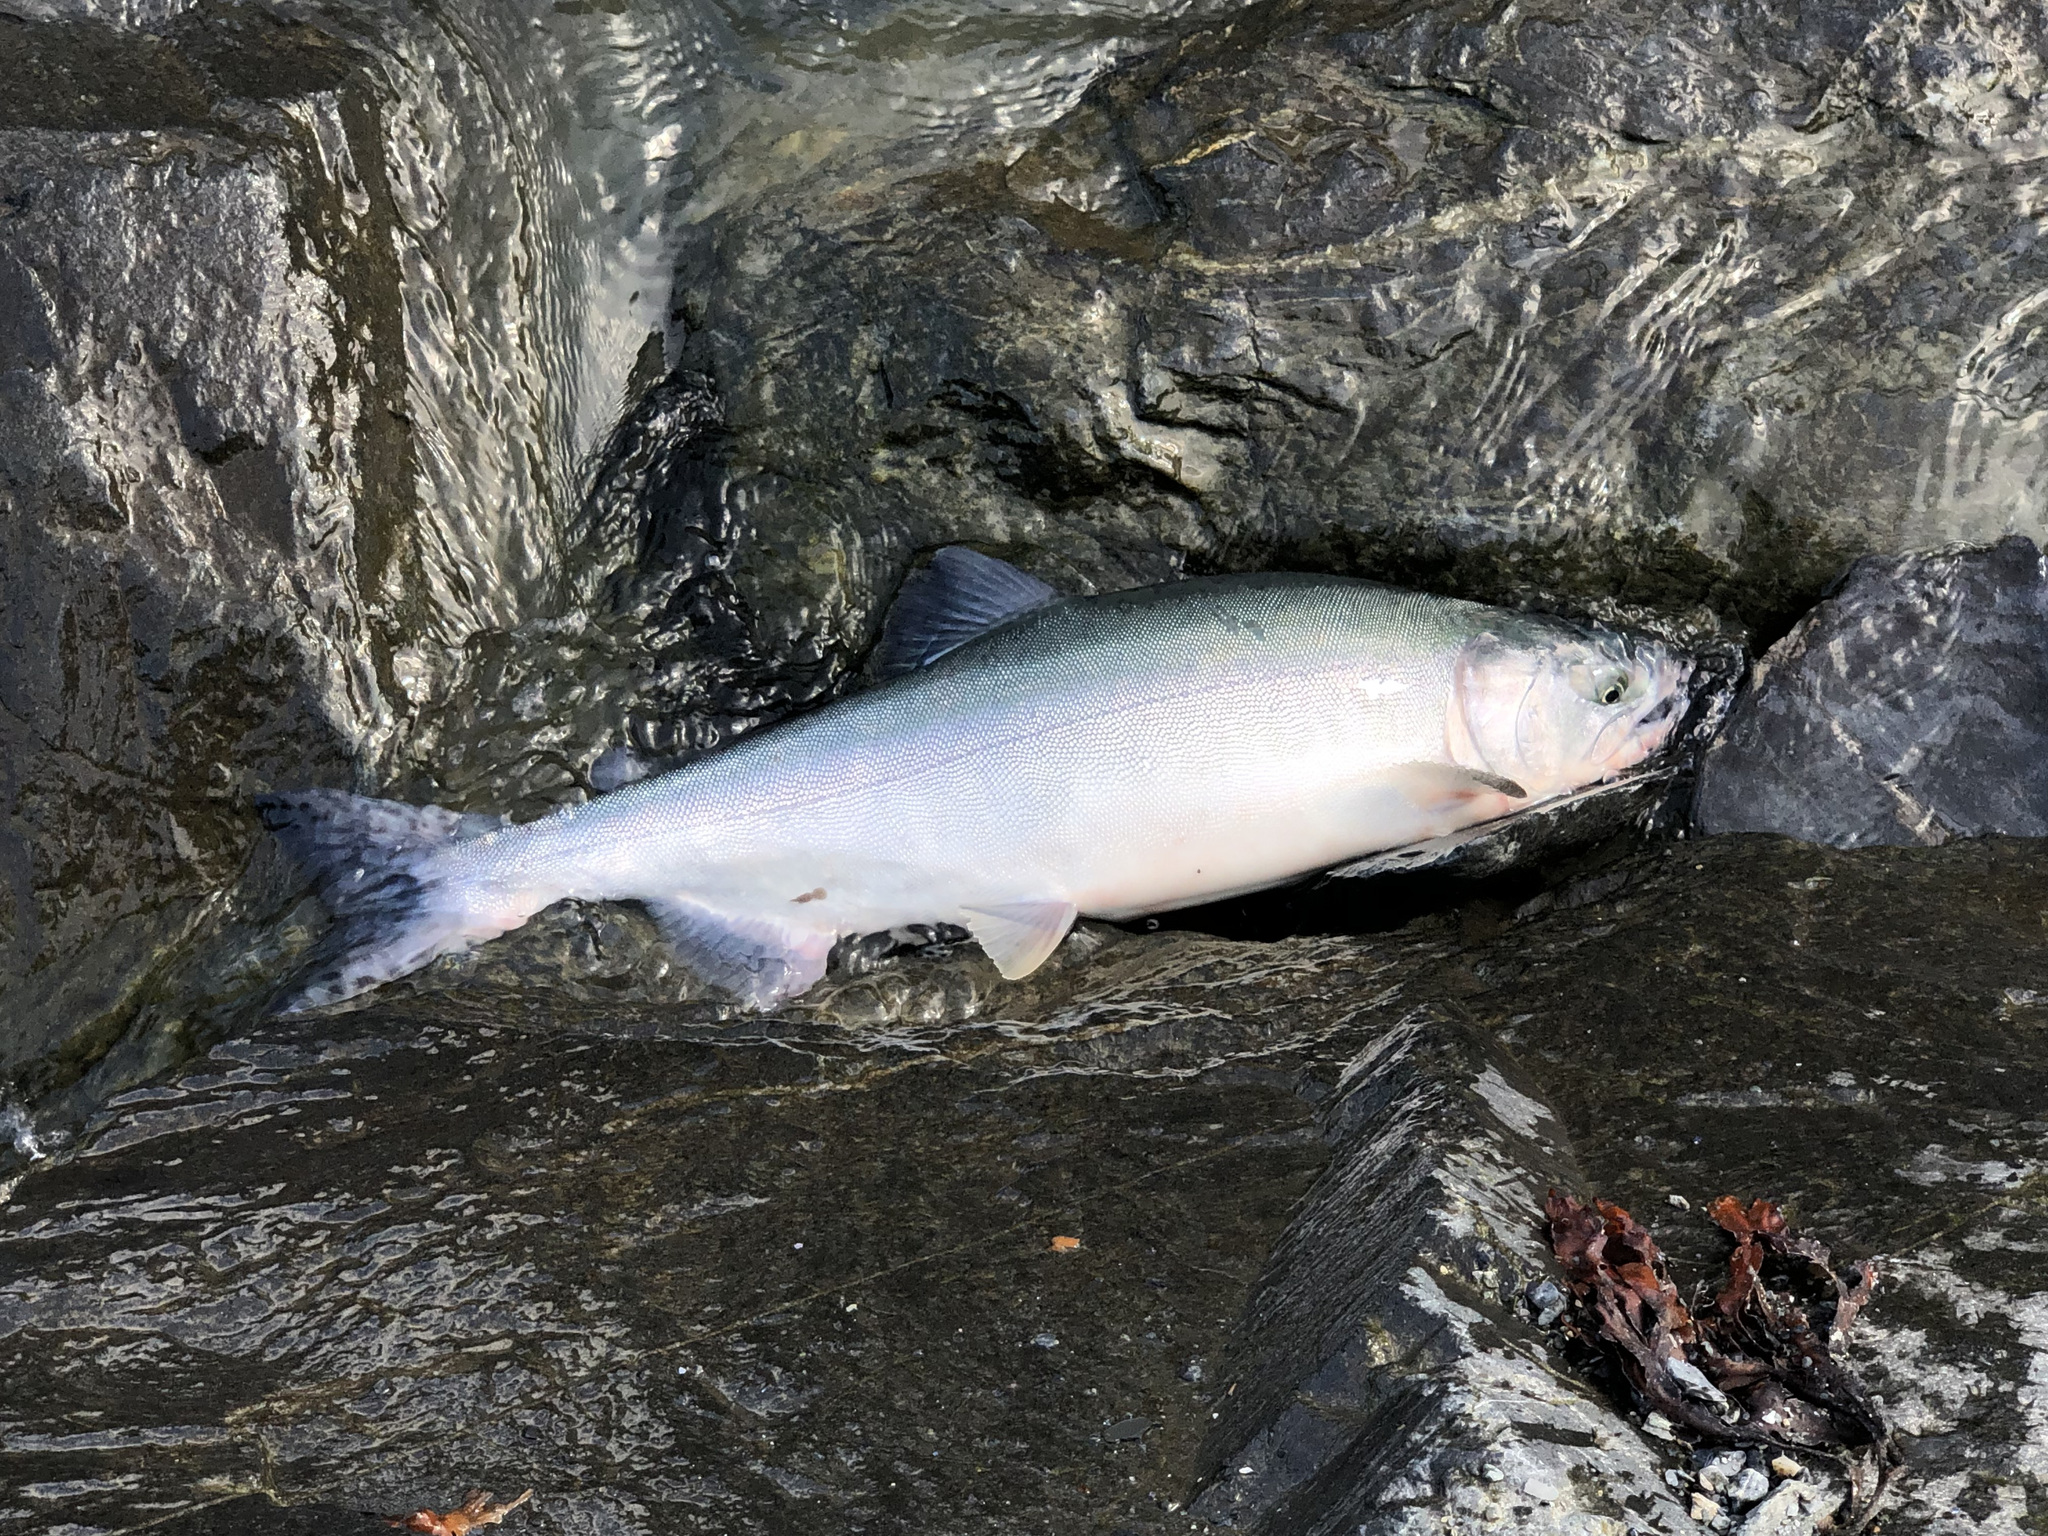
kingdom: Animalia
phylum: Chordata
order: Salmoniformes
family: Salmonidae
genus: Oncorhynchus
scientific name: Oncorhynchus gorbuscha
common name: Humpback salmon
